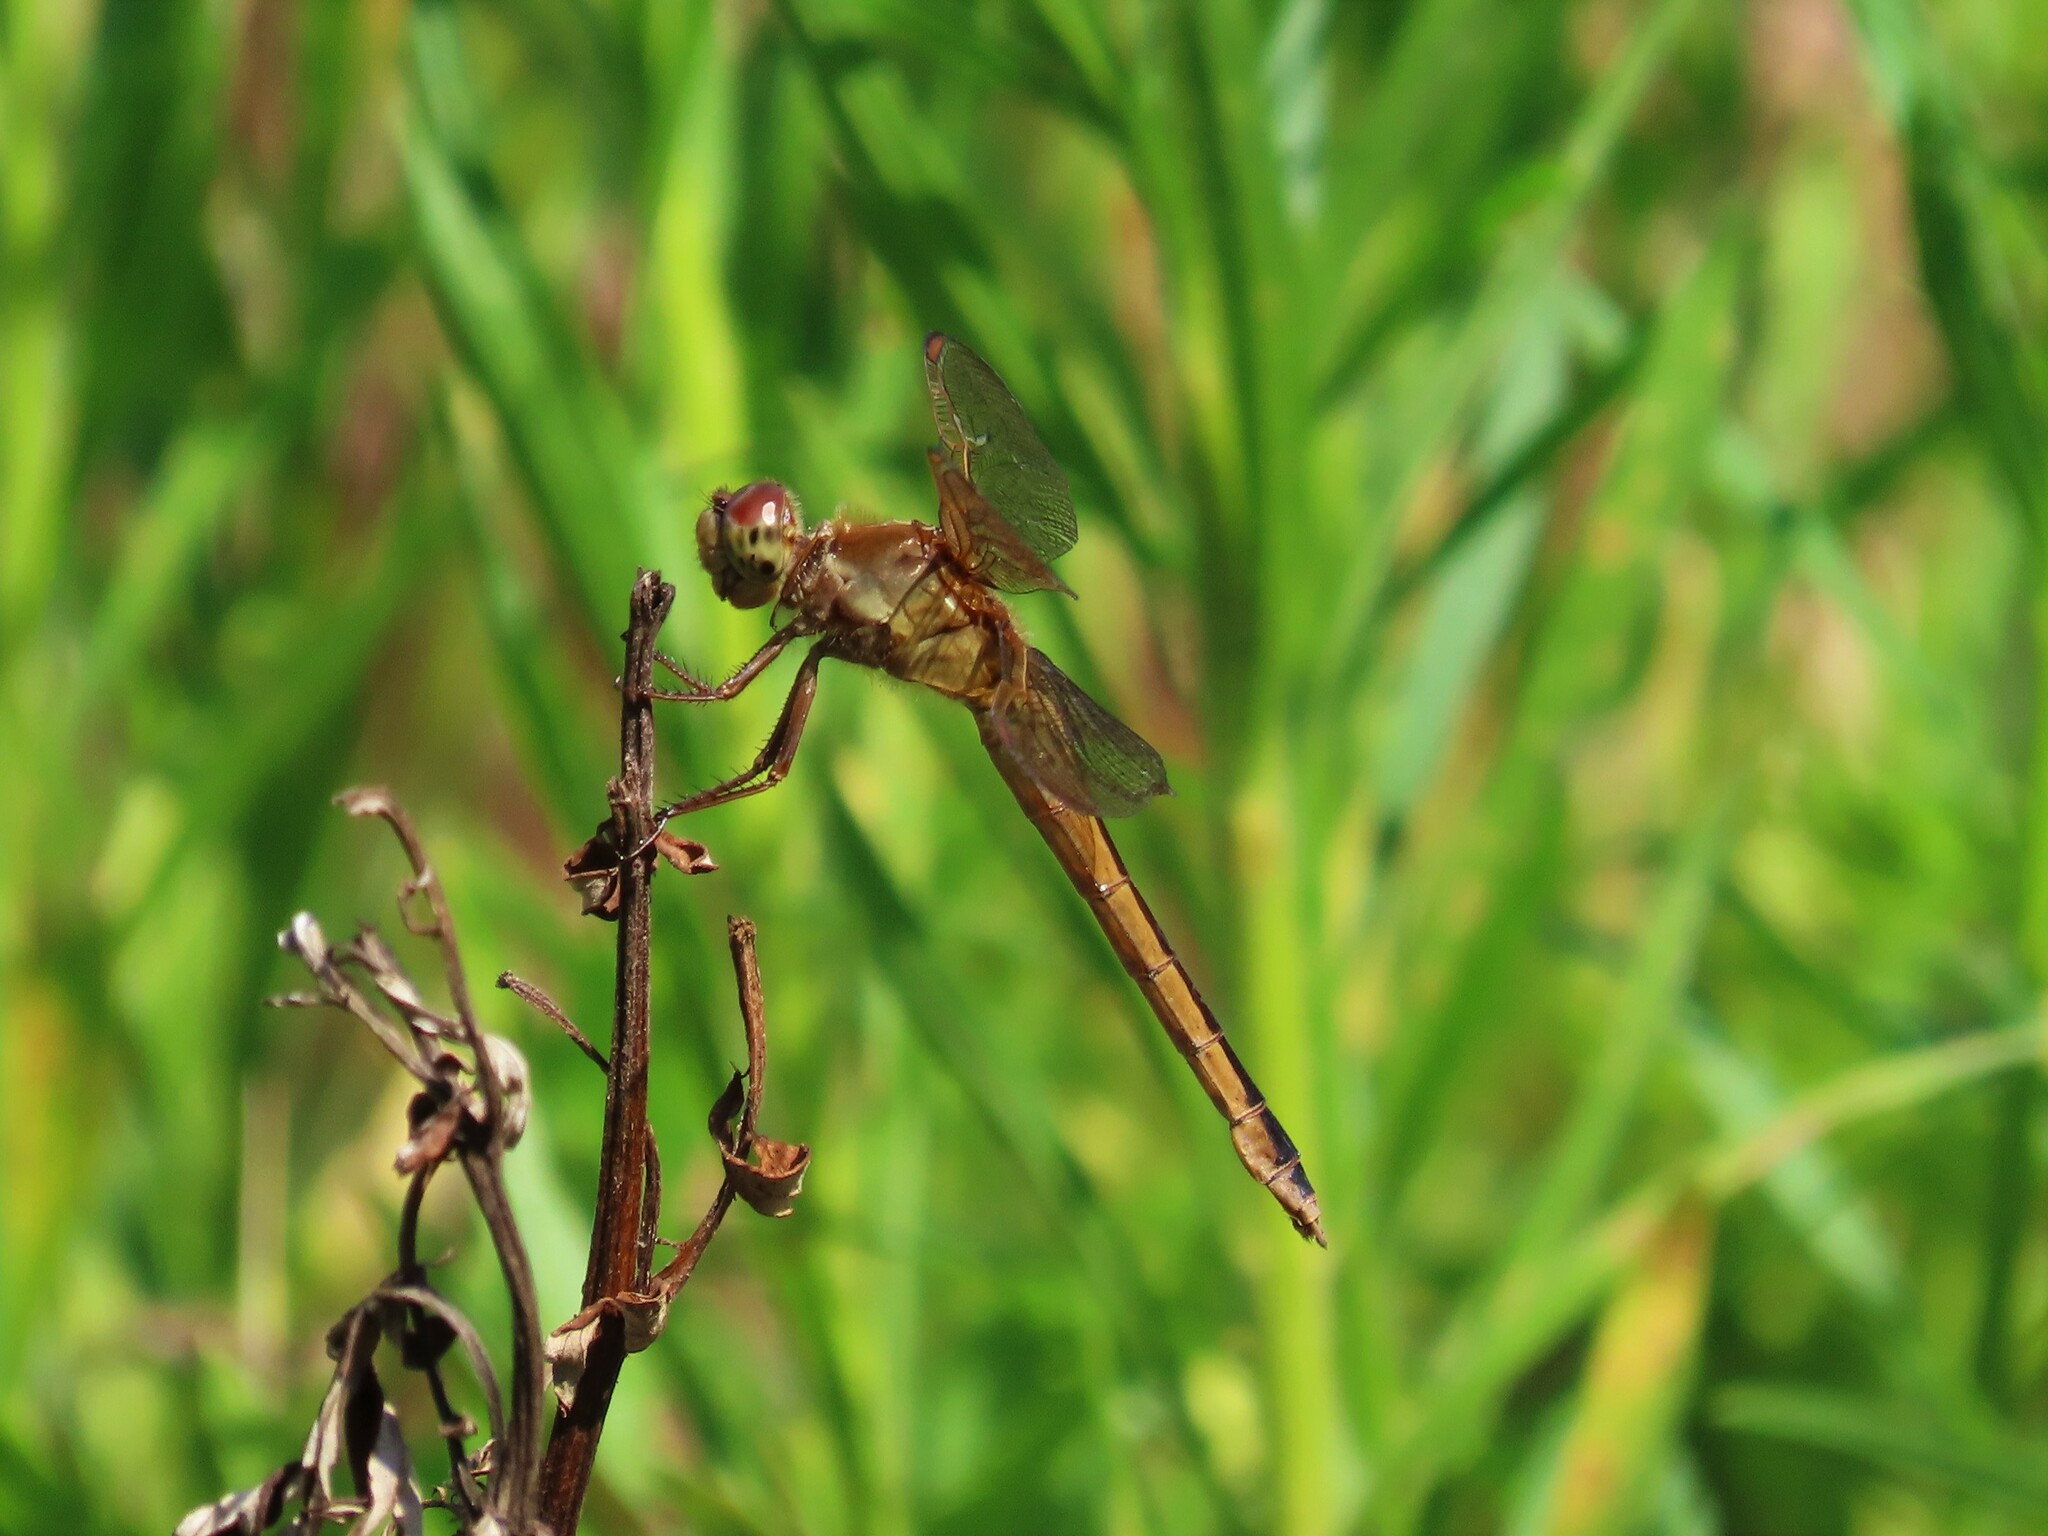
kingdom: Animalia
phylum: Arthropoda
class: Insecta
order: Odonata
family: Libellulidae
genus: Libellula
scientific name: Libellula needhami
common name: Needham's skimmer
